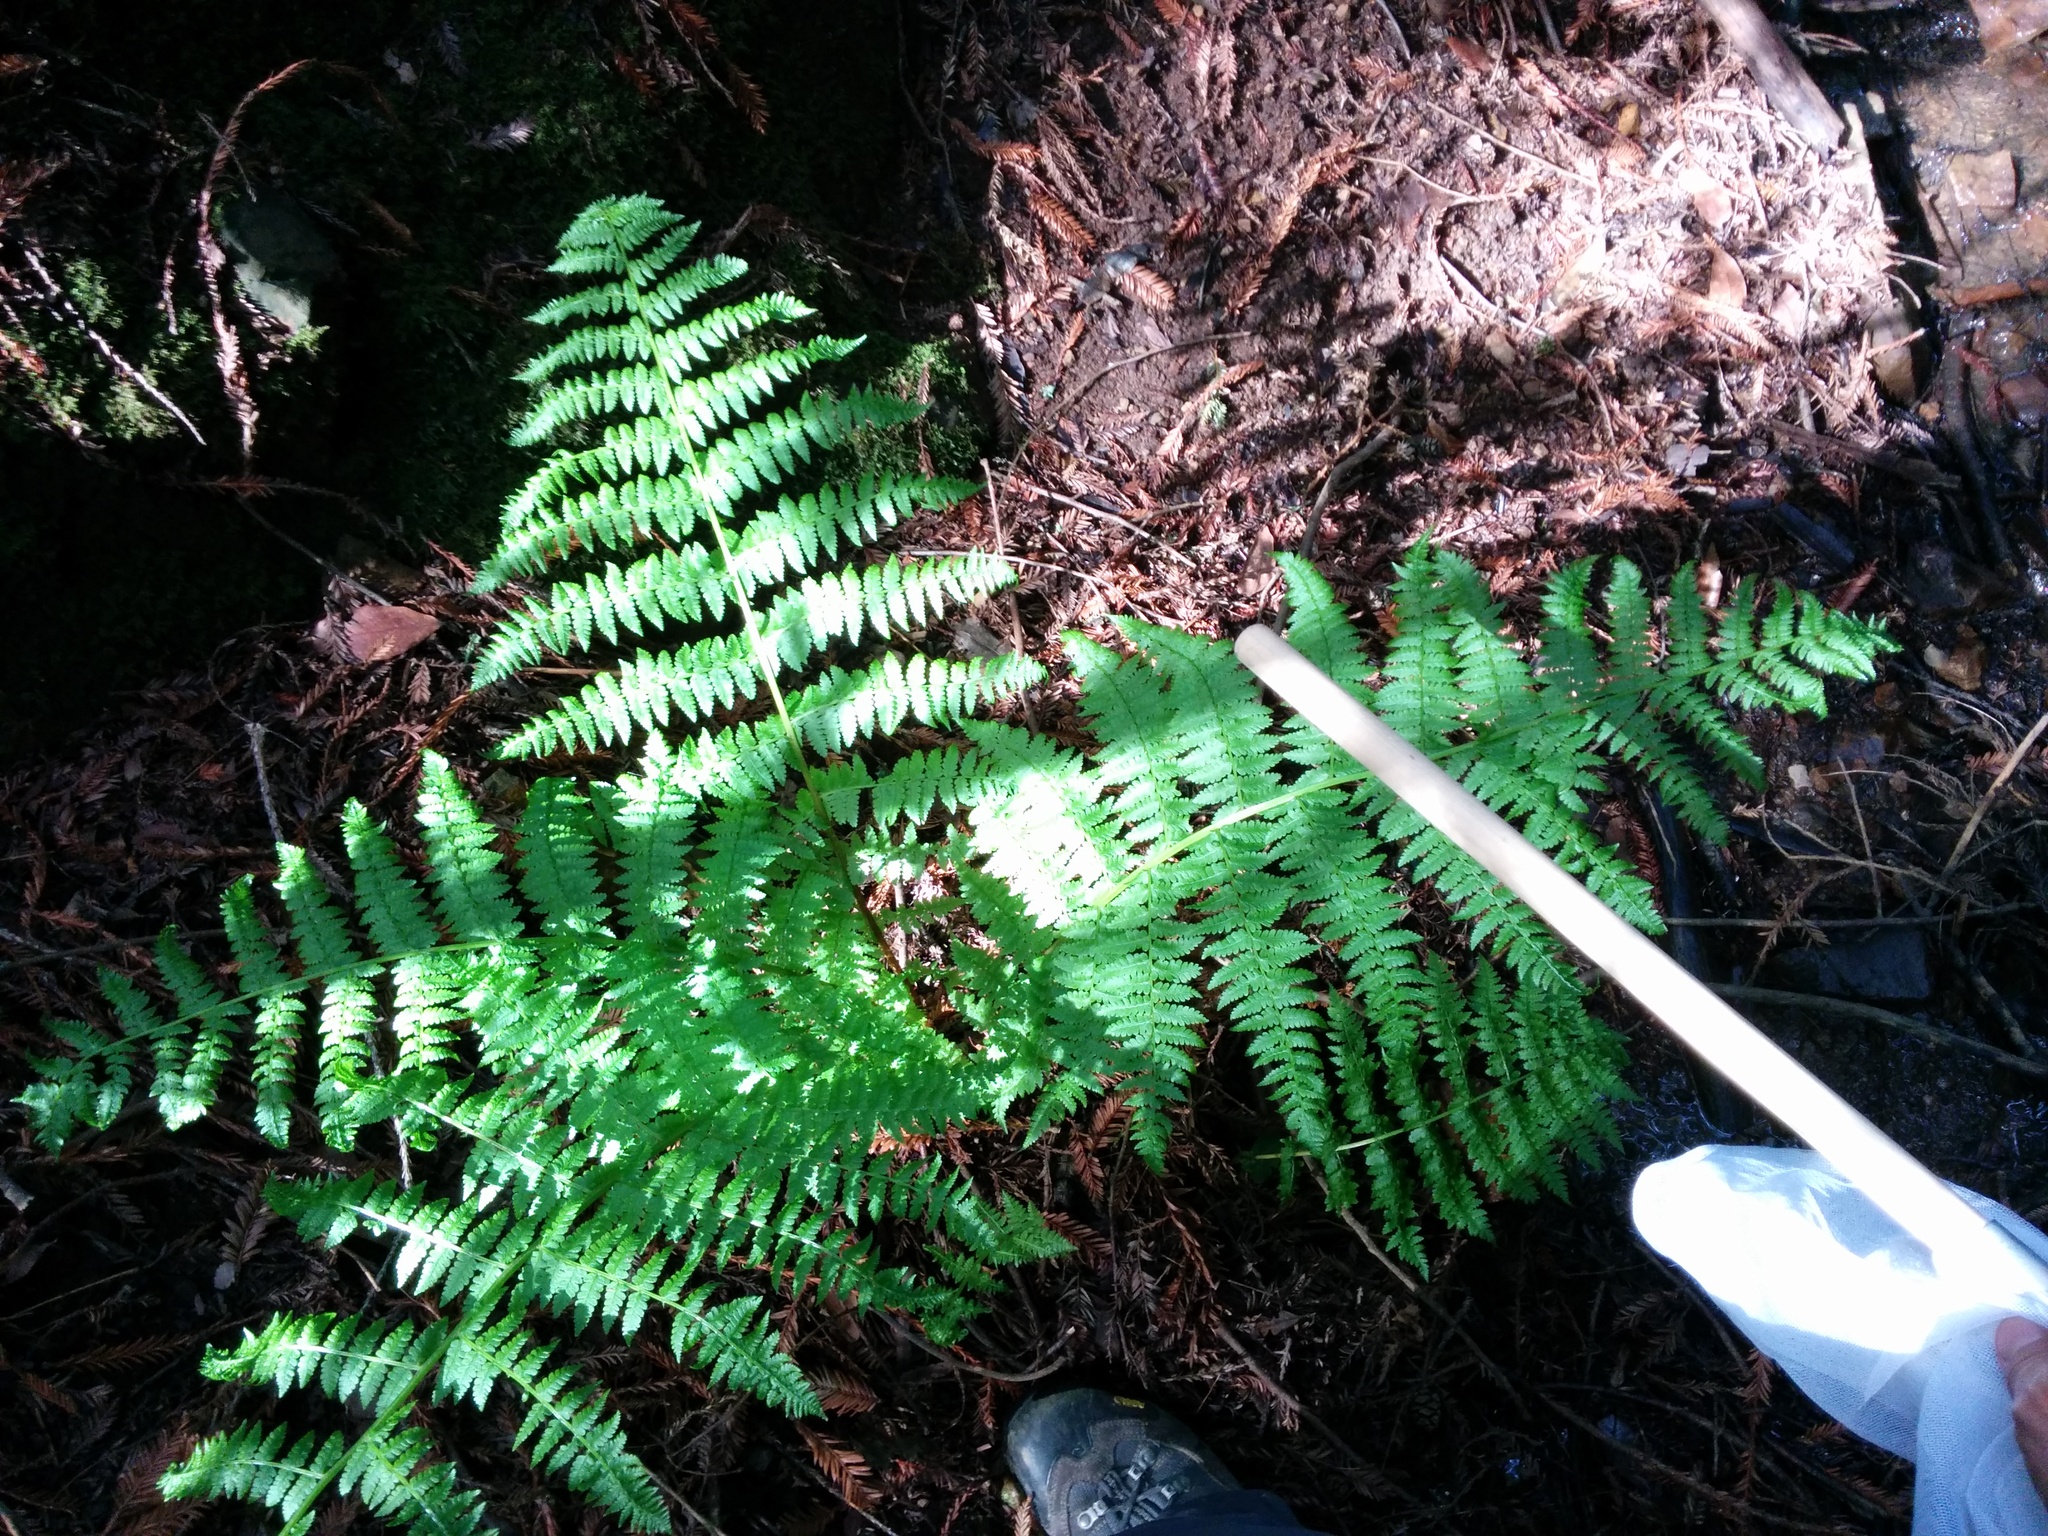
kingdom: Plantae
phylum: Tracheophyta
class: Polypodiopsida
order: Polypodiales
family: Athyriaceae
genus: Athyrium
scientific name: Athyrium filix-femina
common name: Lady fern
